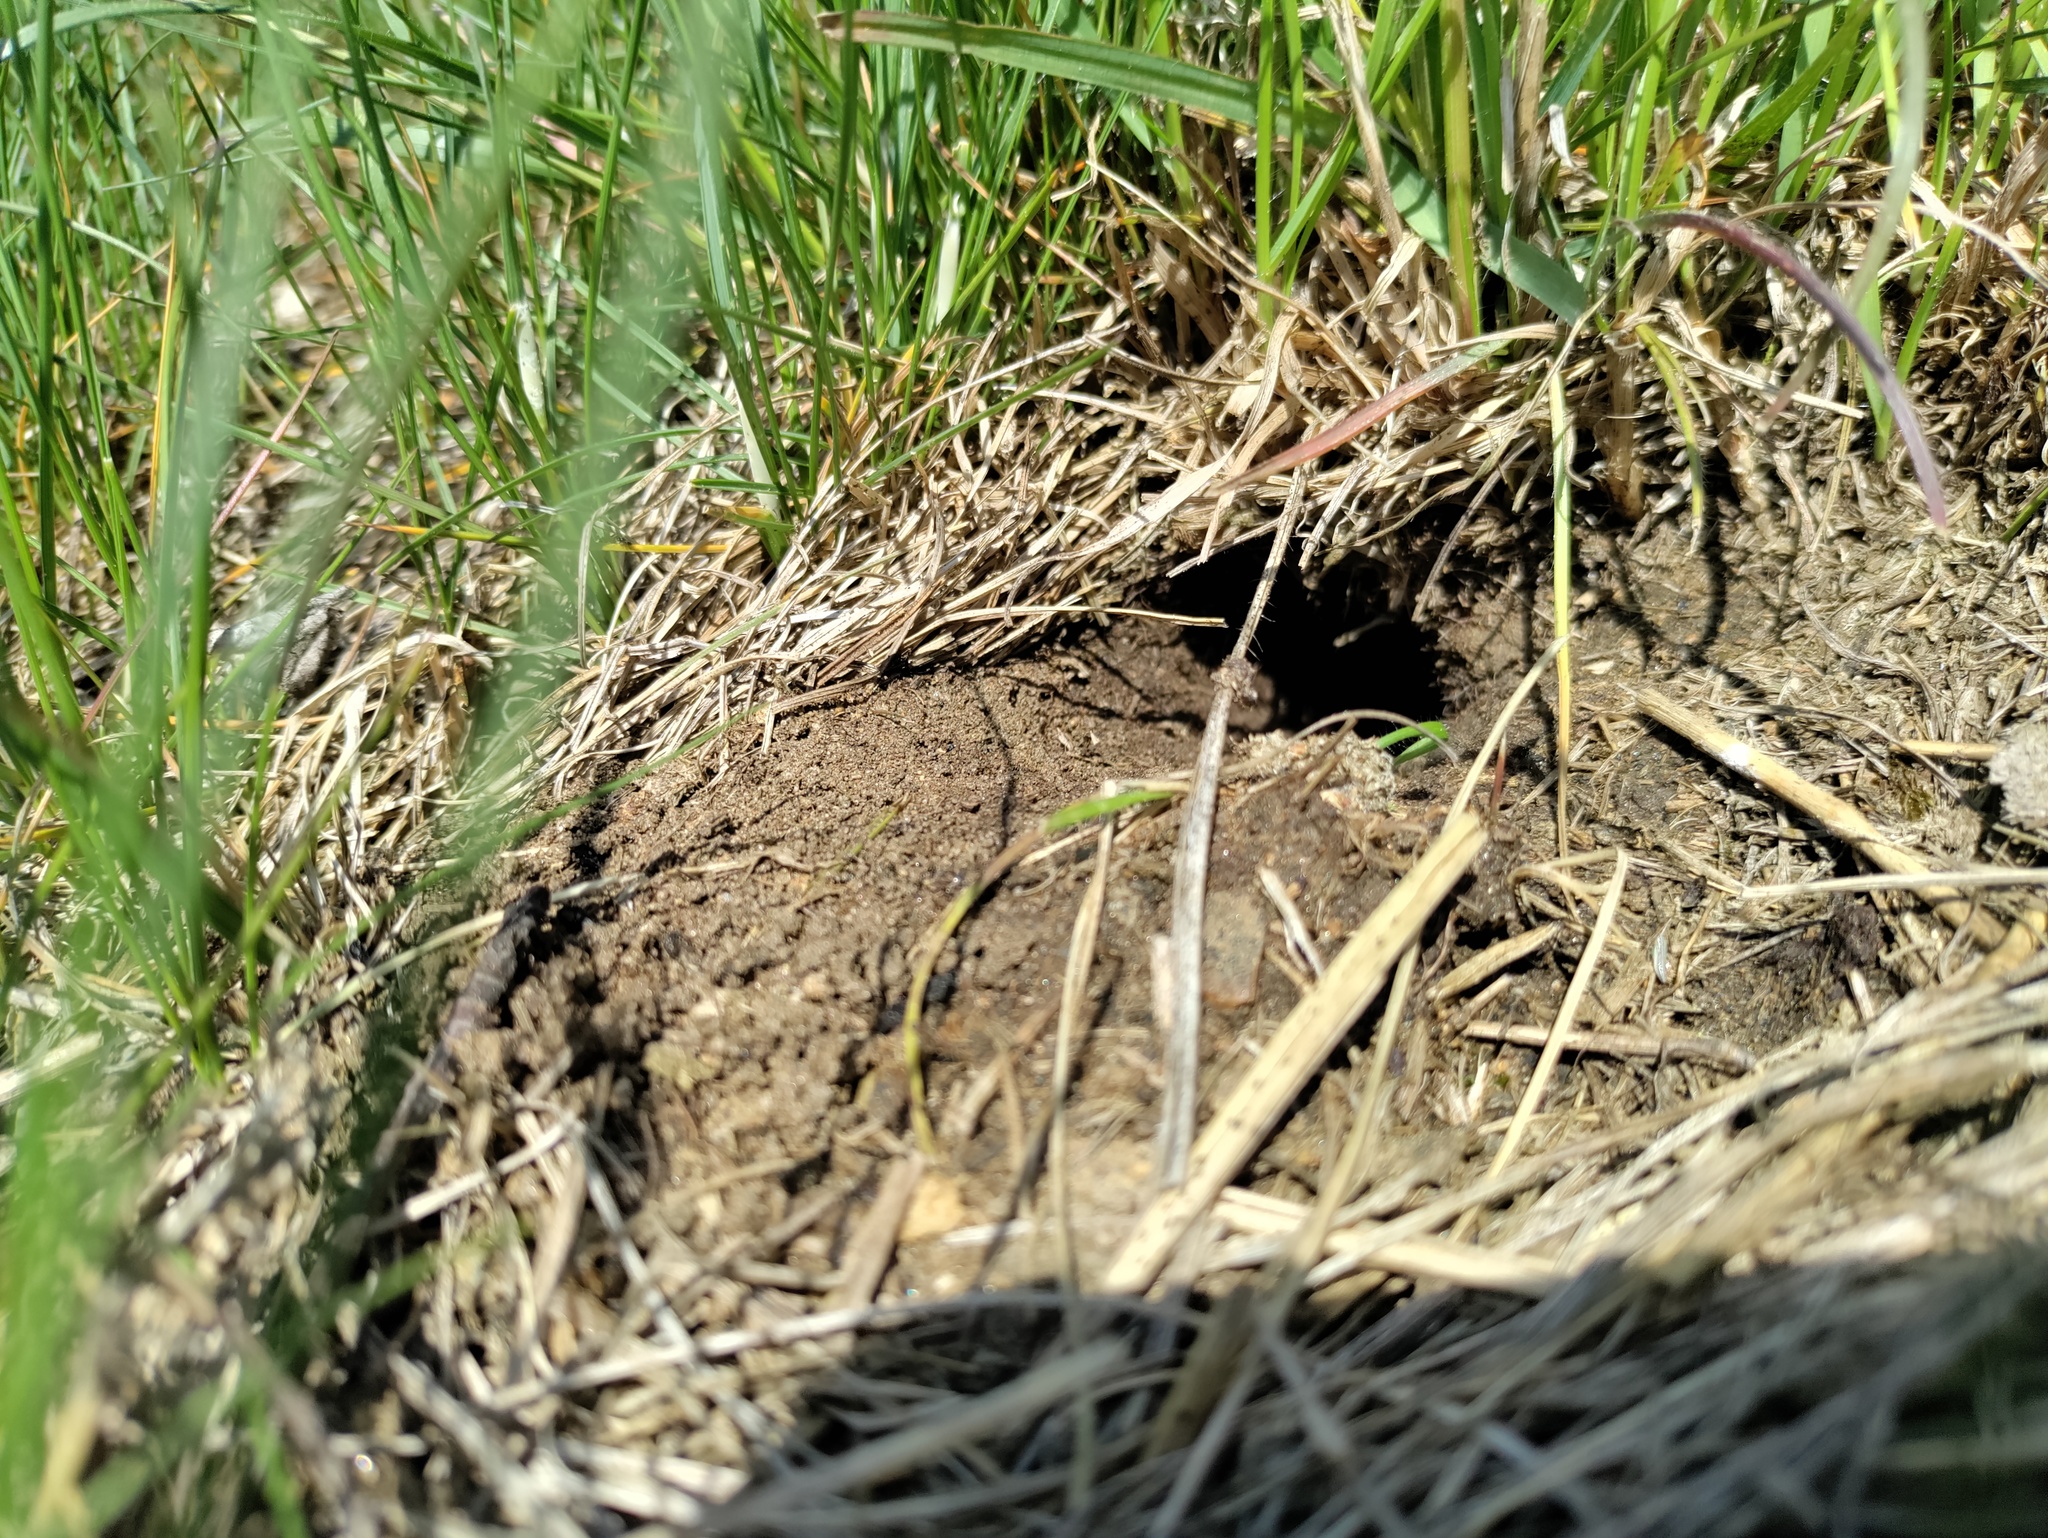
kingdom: Animalia
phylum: Arthropoda
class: Insecta
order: Orthoptera
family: Gryllidae
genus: Gryllus
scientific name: Gryllus campestris
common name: Field cricket
